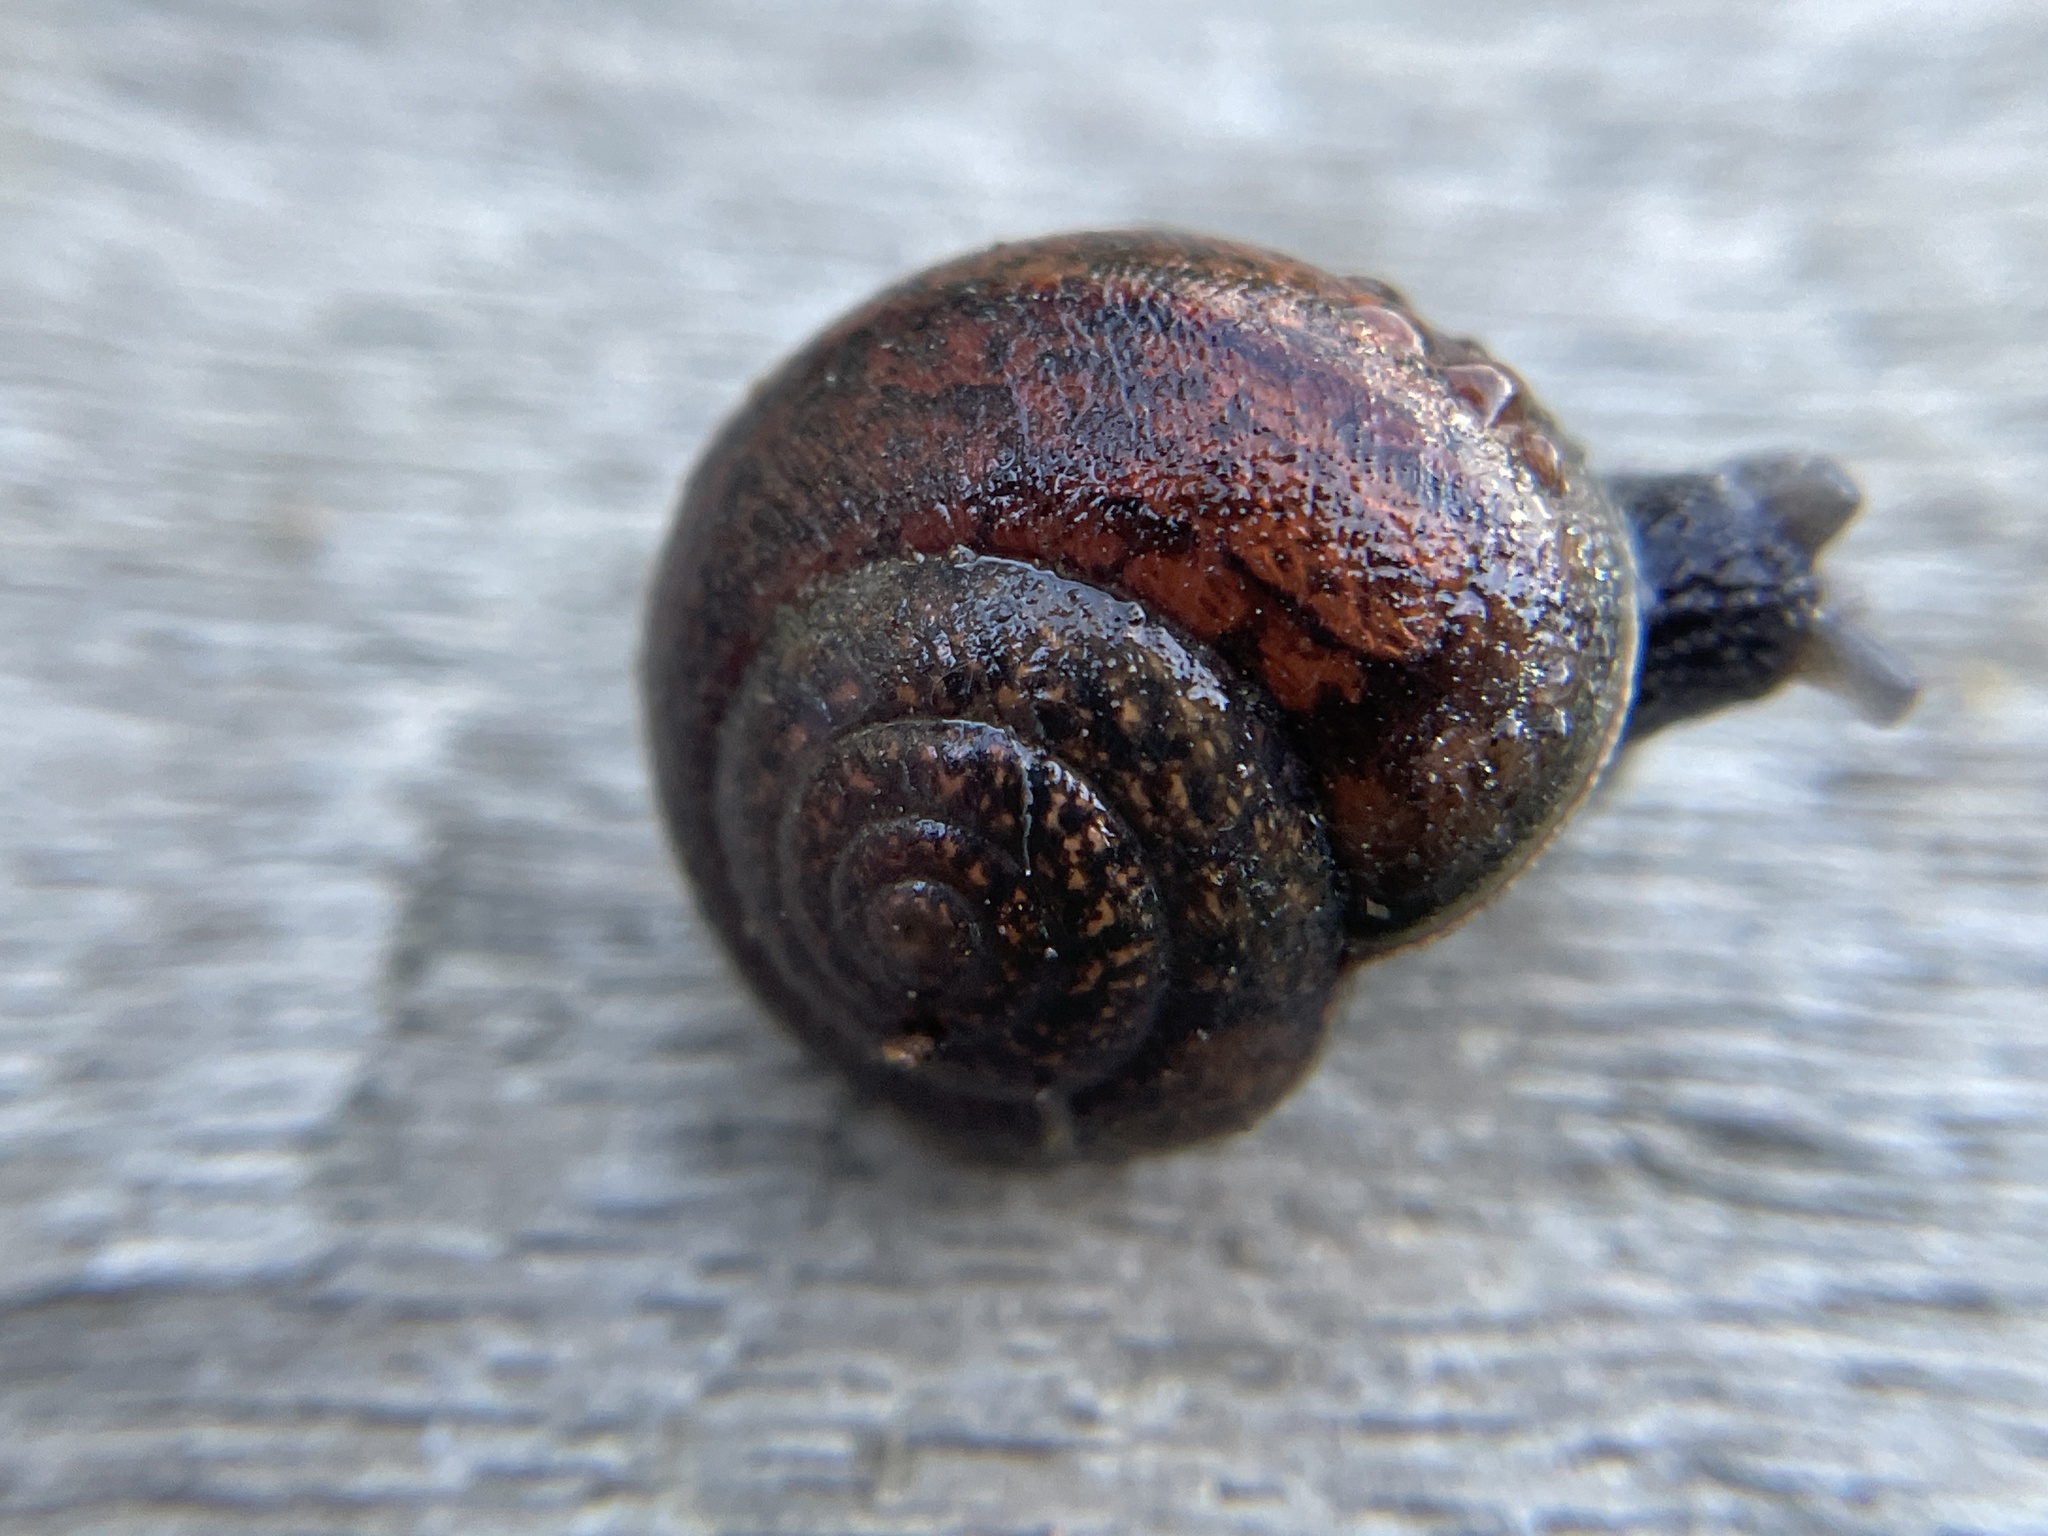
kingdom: Animalia
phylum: Mollusca
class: Gastropoda
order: Stylommatophora
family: Xanthonychidae
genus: Helminthoglypta
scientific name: Helminthoglypta nickliniana
